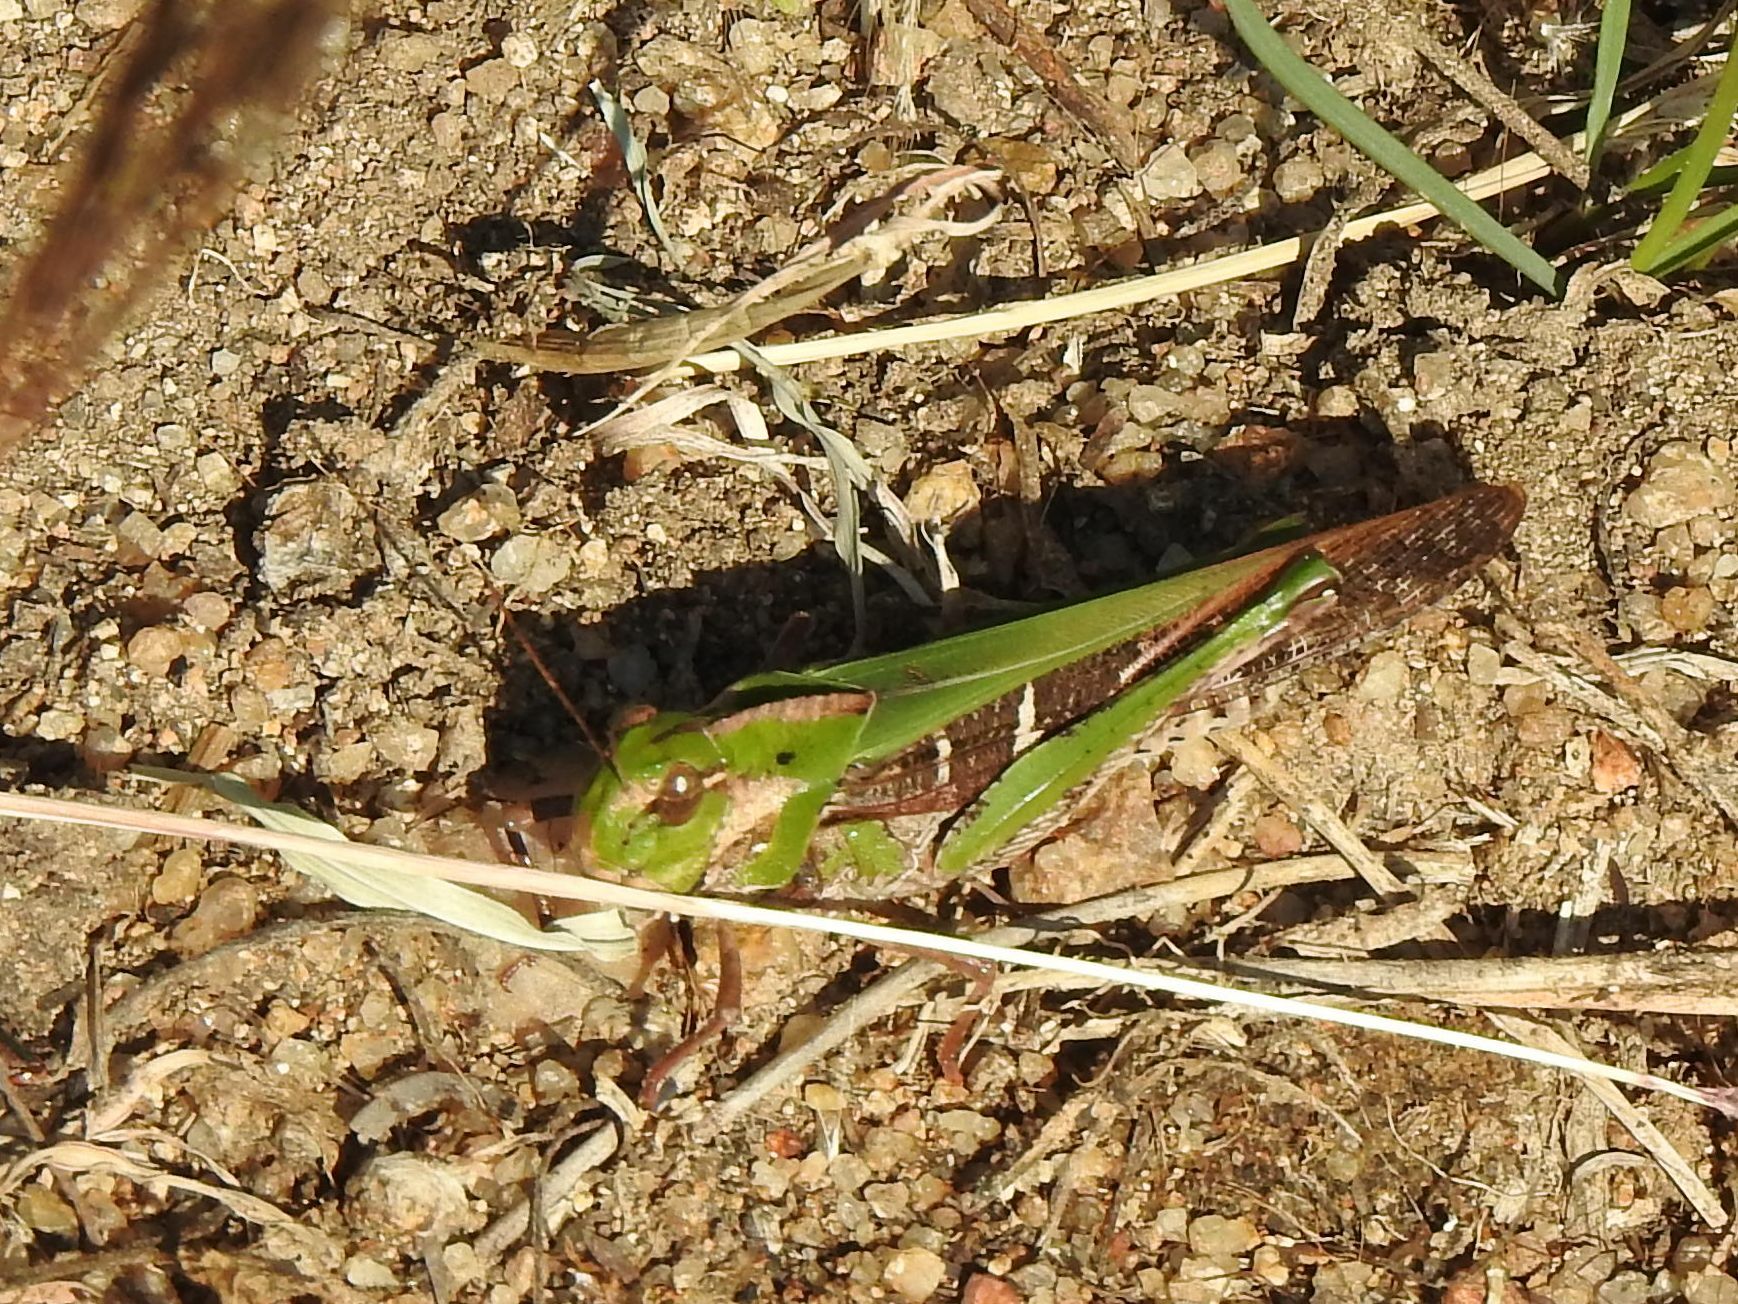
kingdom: Animalia
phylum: Arthropoda
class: Insecta
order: Orthoptera
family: Acrididae
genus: Gastrimargus
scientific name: Gastrimargus africanus
